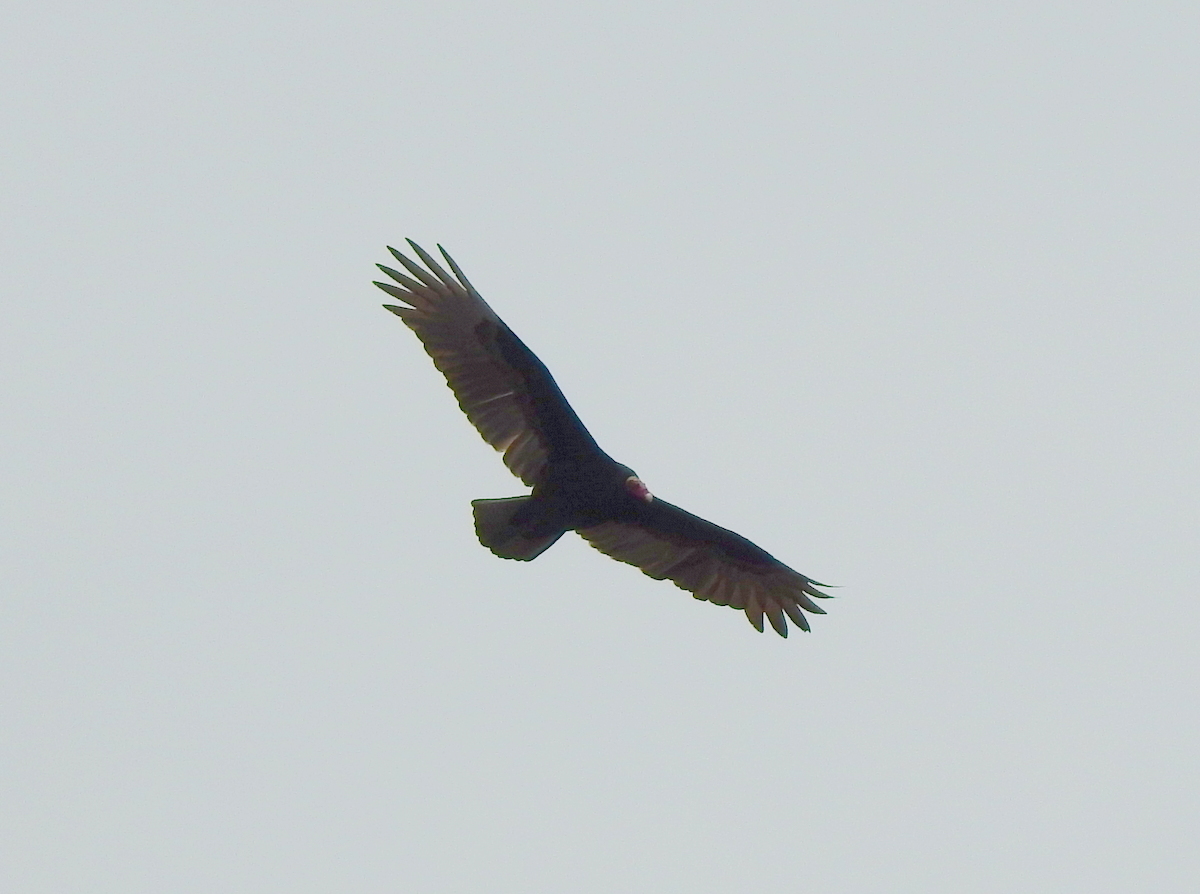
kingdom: Animalia
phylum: Chordata
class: Aves
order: Accipitriformes
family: Cathartidae
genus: Cathartes
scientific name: Cathartes aura
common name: Turkey vulture
